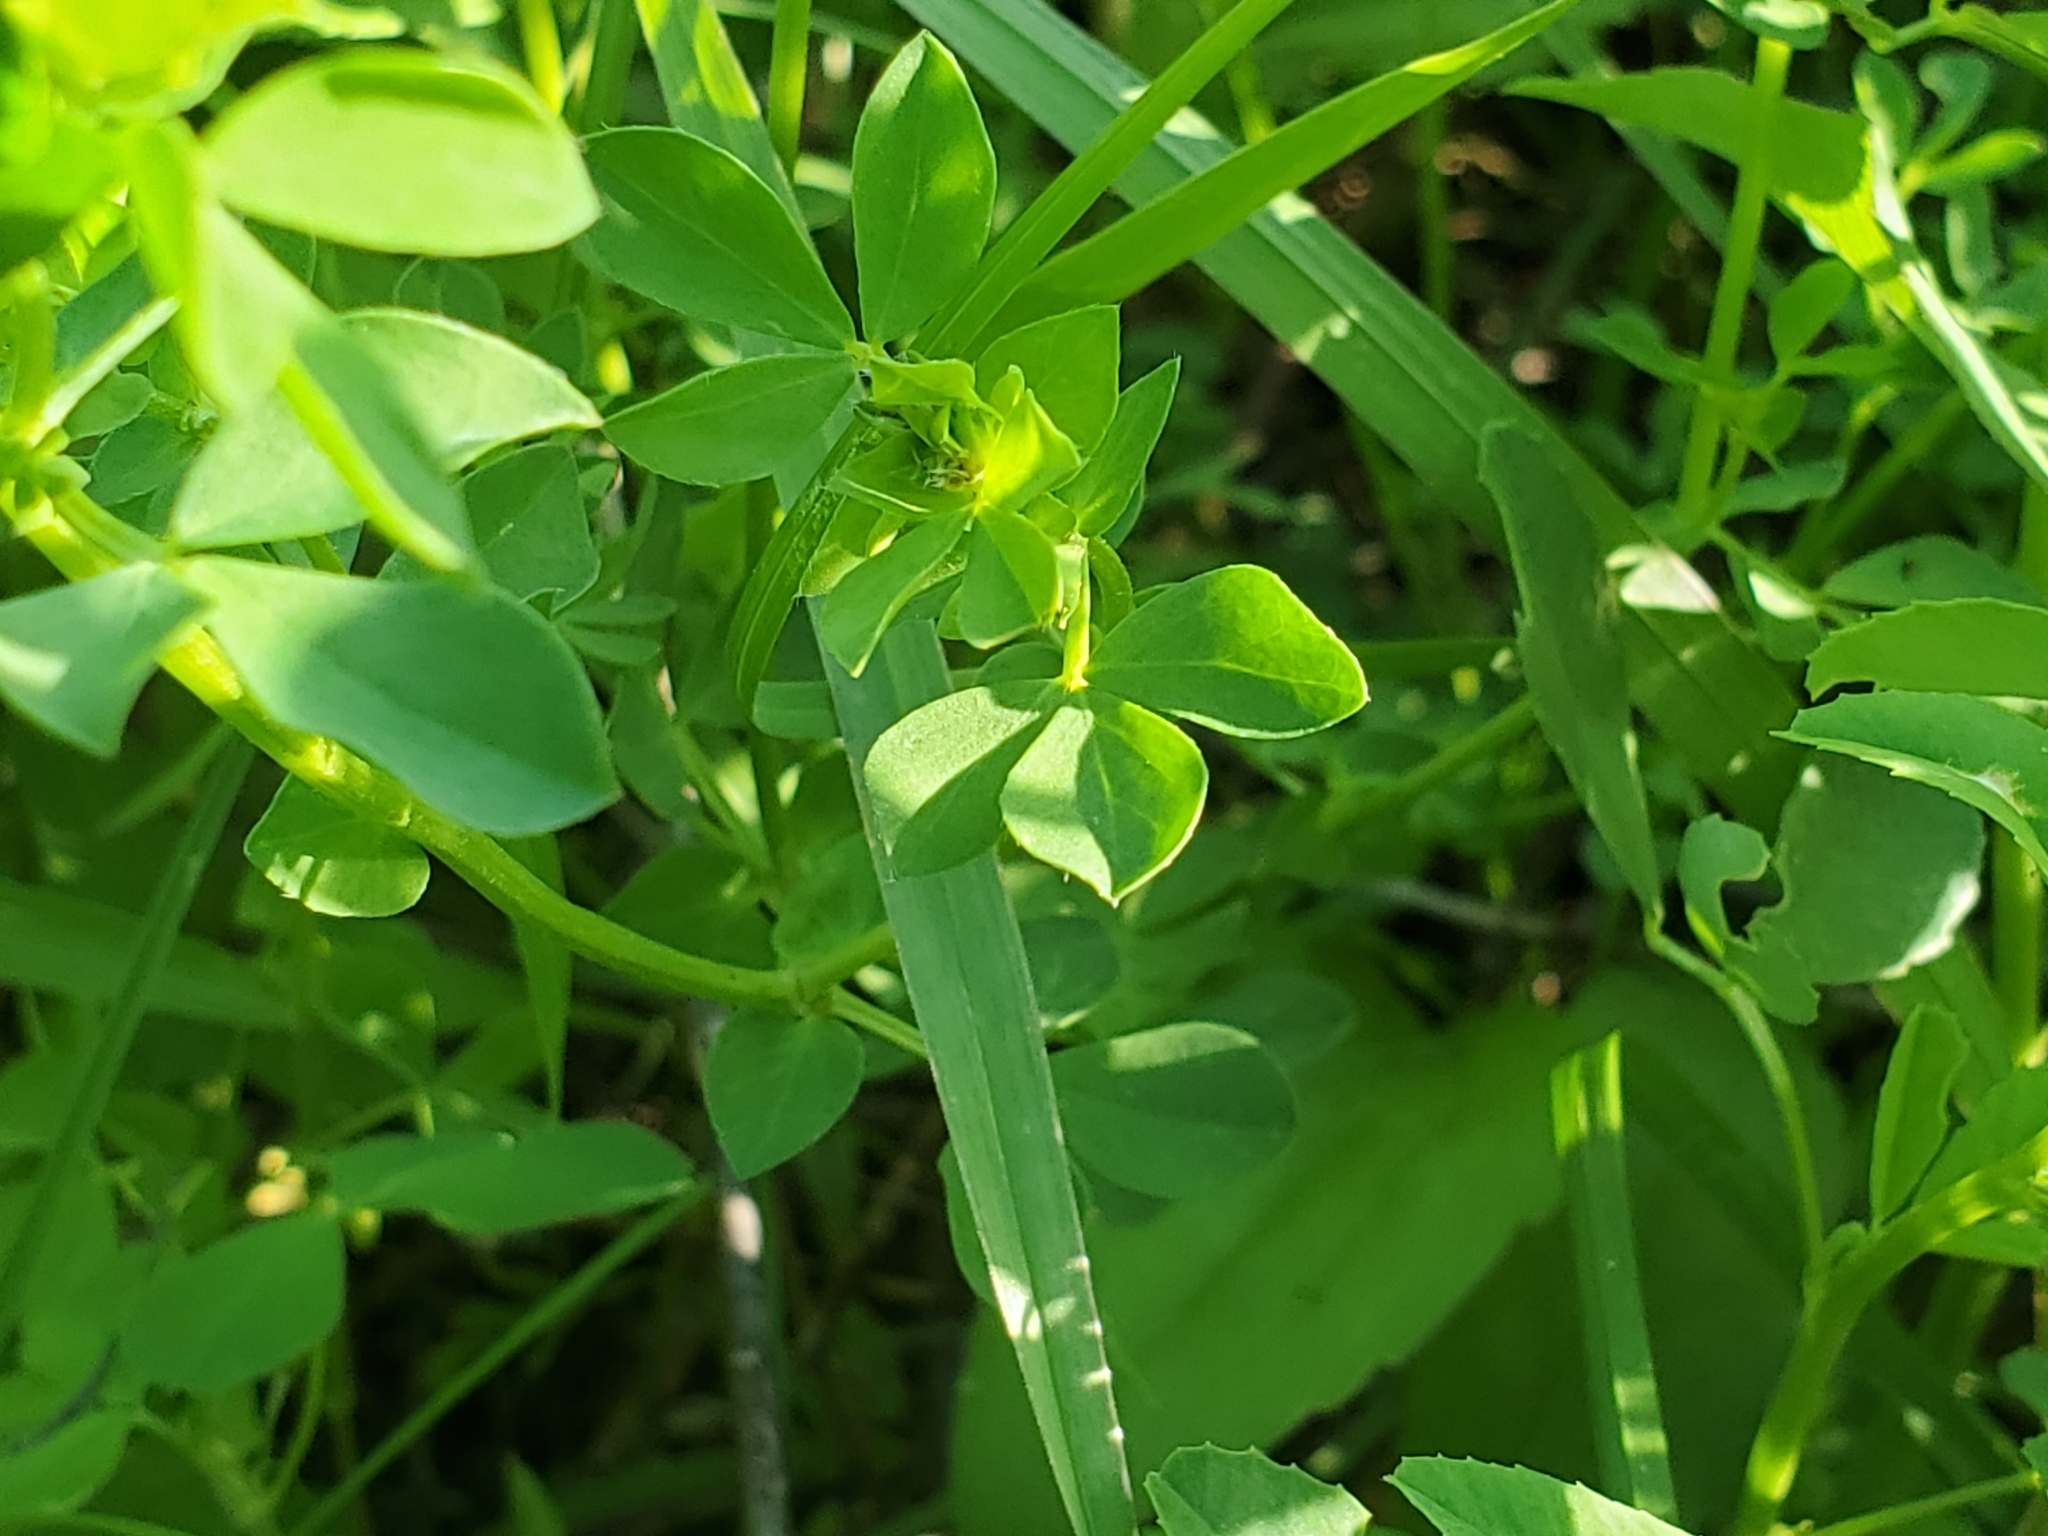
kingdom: Plantae
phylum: Tracheophyta
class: Magnoliopsida
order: Fabales
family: Fabaceae
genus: Lotus
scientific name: Lotus corniculatus
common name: Common bird's-foot-trefoil
